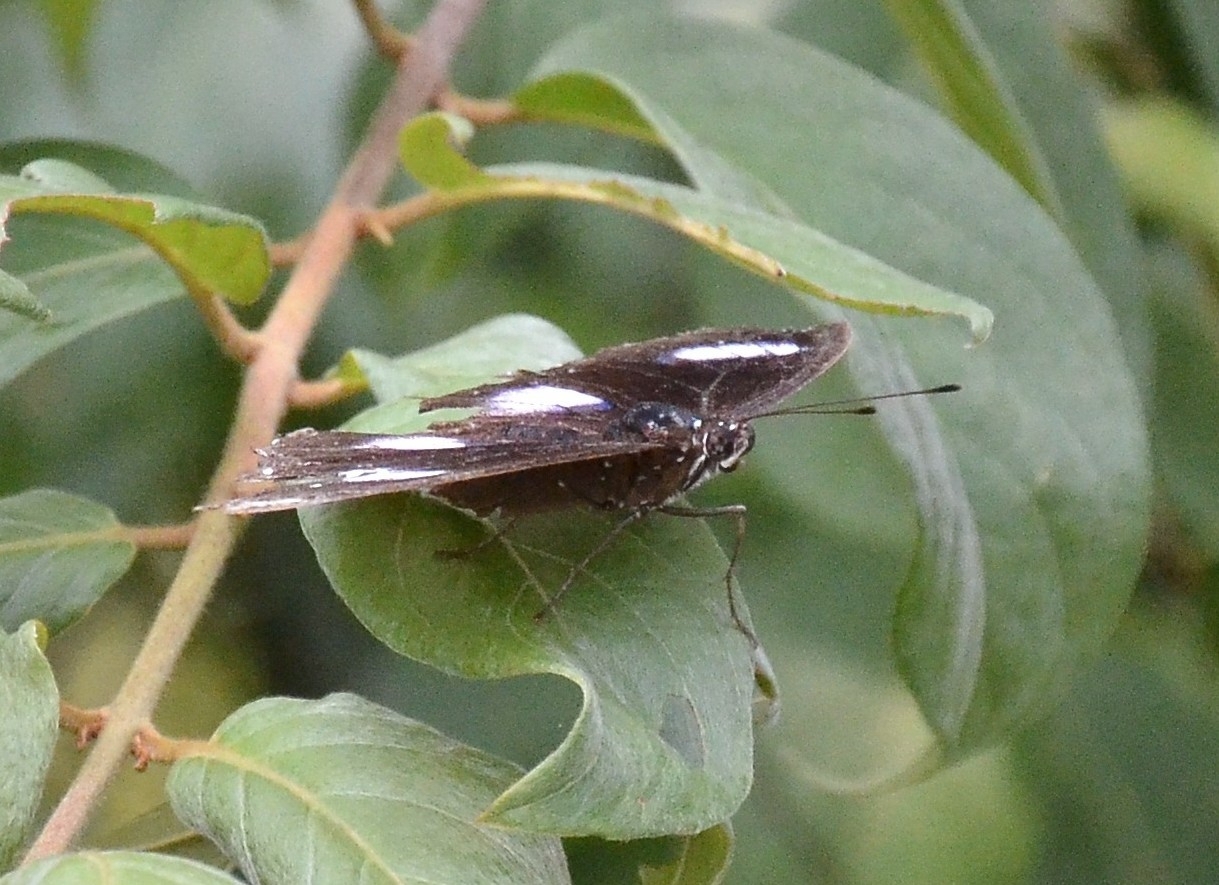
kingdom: Animalia
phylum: Arthropoda
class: Insecta
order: Lepidoptera
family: Nymphalidae
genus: Hypolimnas
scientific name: Hypolimnas bolina
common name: Great eggfly
